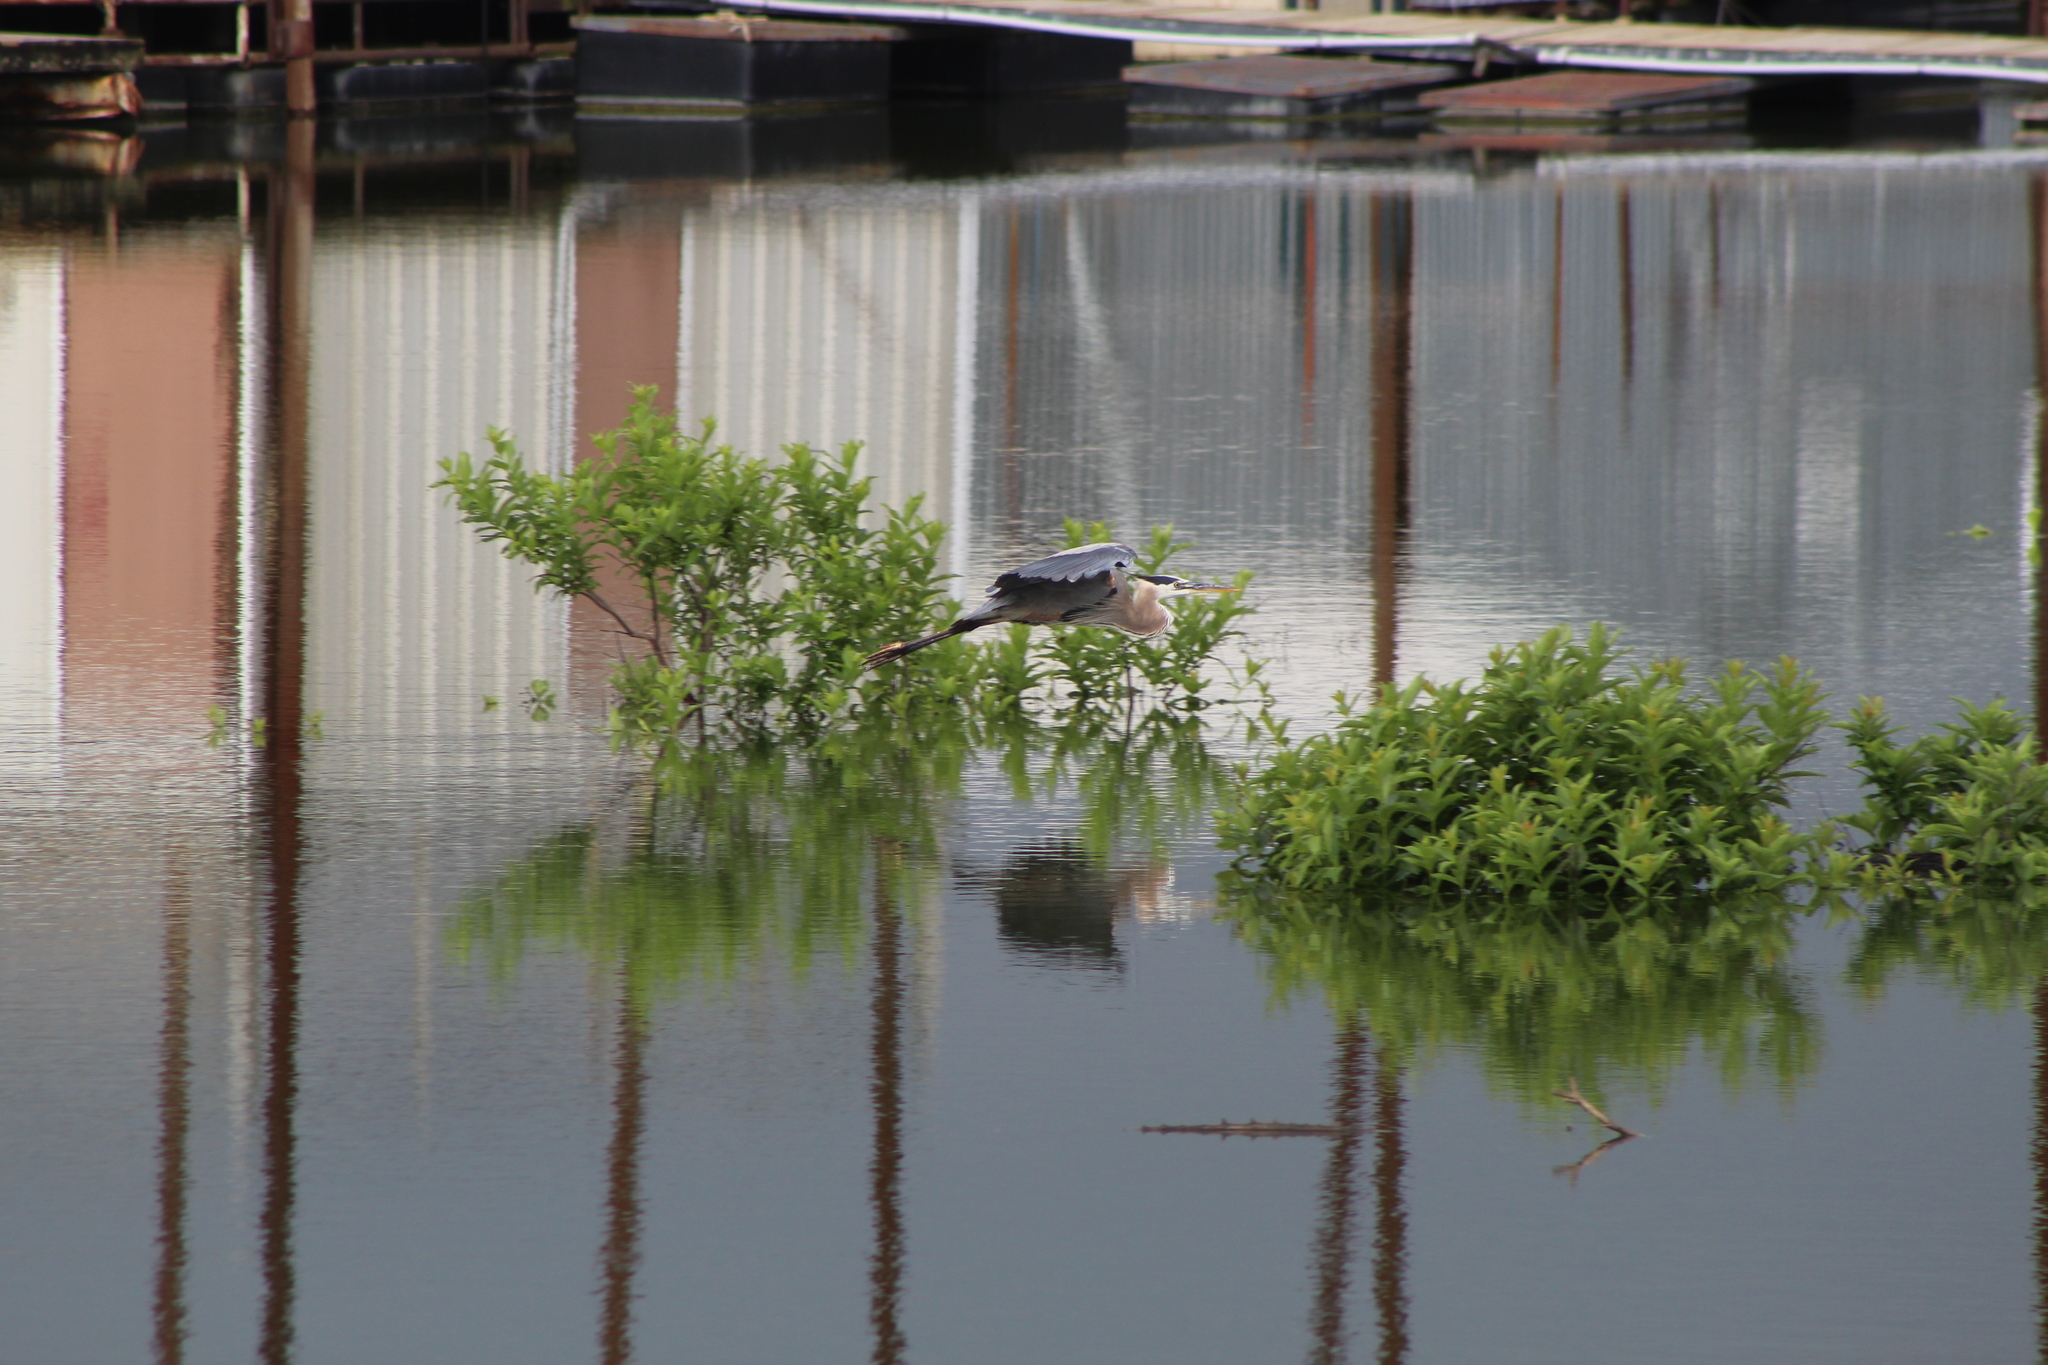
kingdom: Animalia
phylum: Chordata
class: Aves
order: Pelecaniformes
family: Ardeidae
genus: Ardea
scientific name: Ardea herodias
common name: Great blue heron
